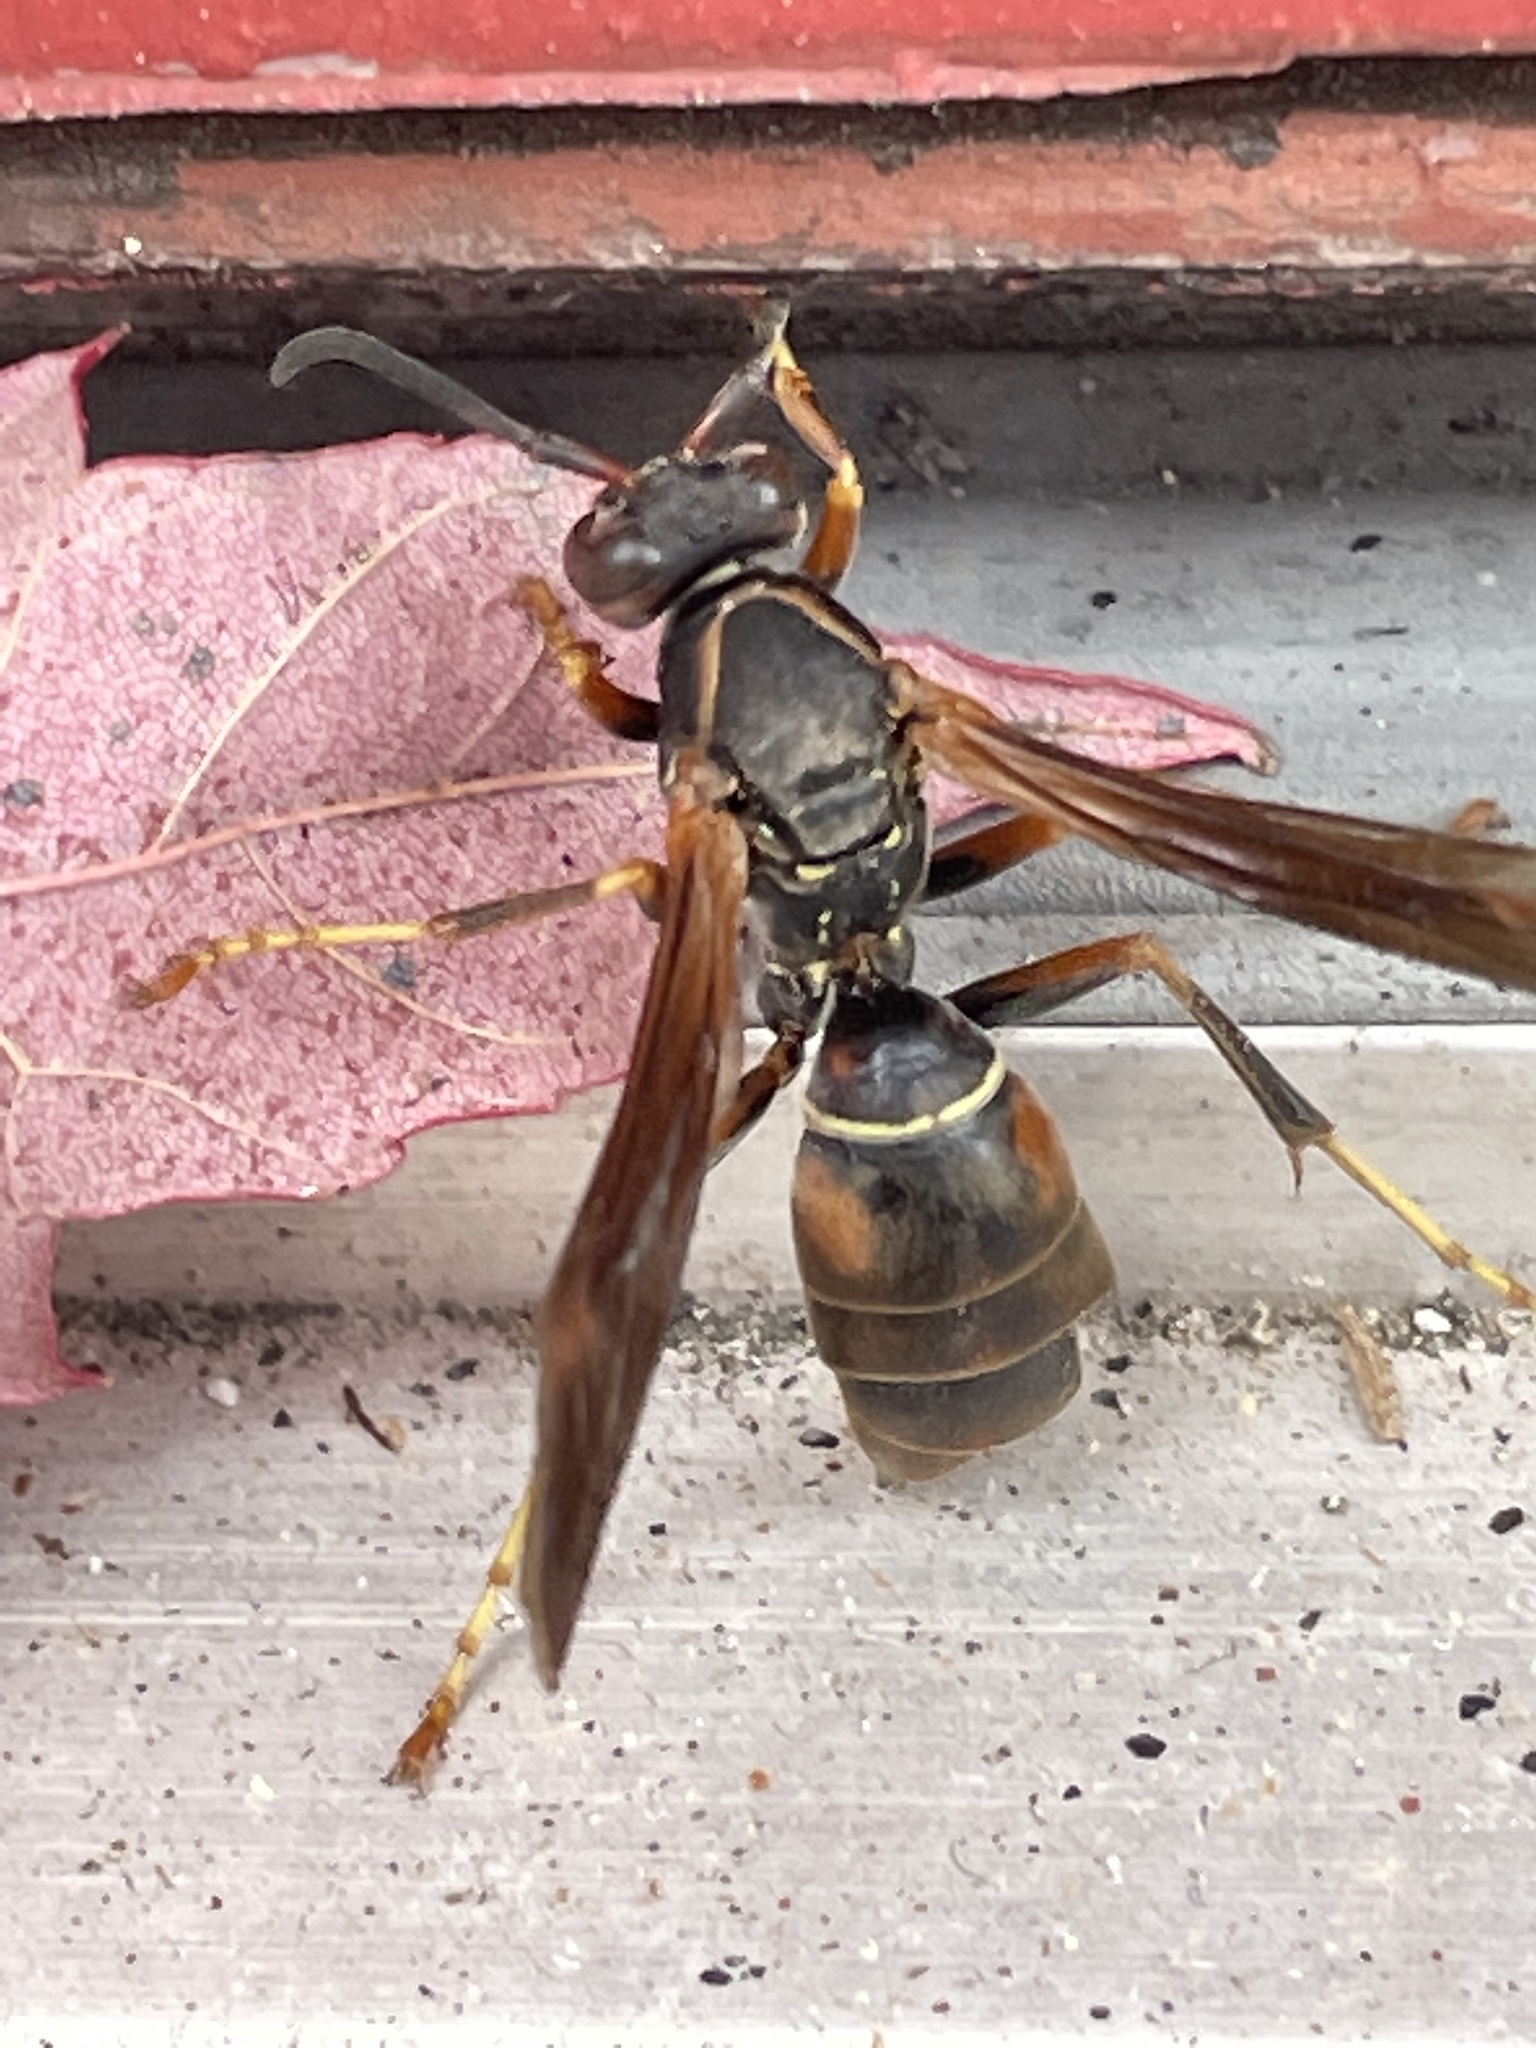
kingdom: Animalia
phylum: Arthropoda
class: Insecta
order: Hymenoptera
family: Eumenidae
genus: Polistes
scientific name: Polistes fuscatus
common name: Dark paper wasp
